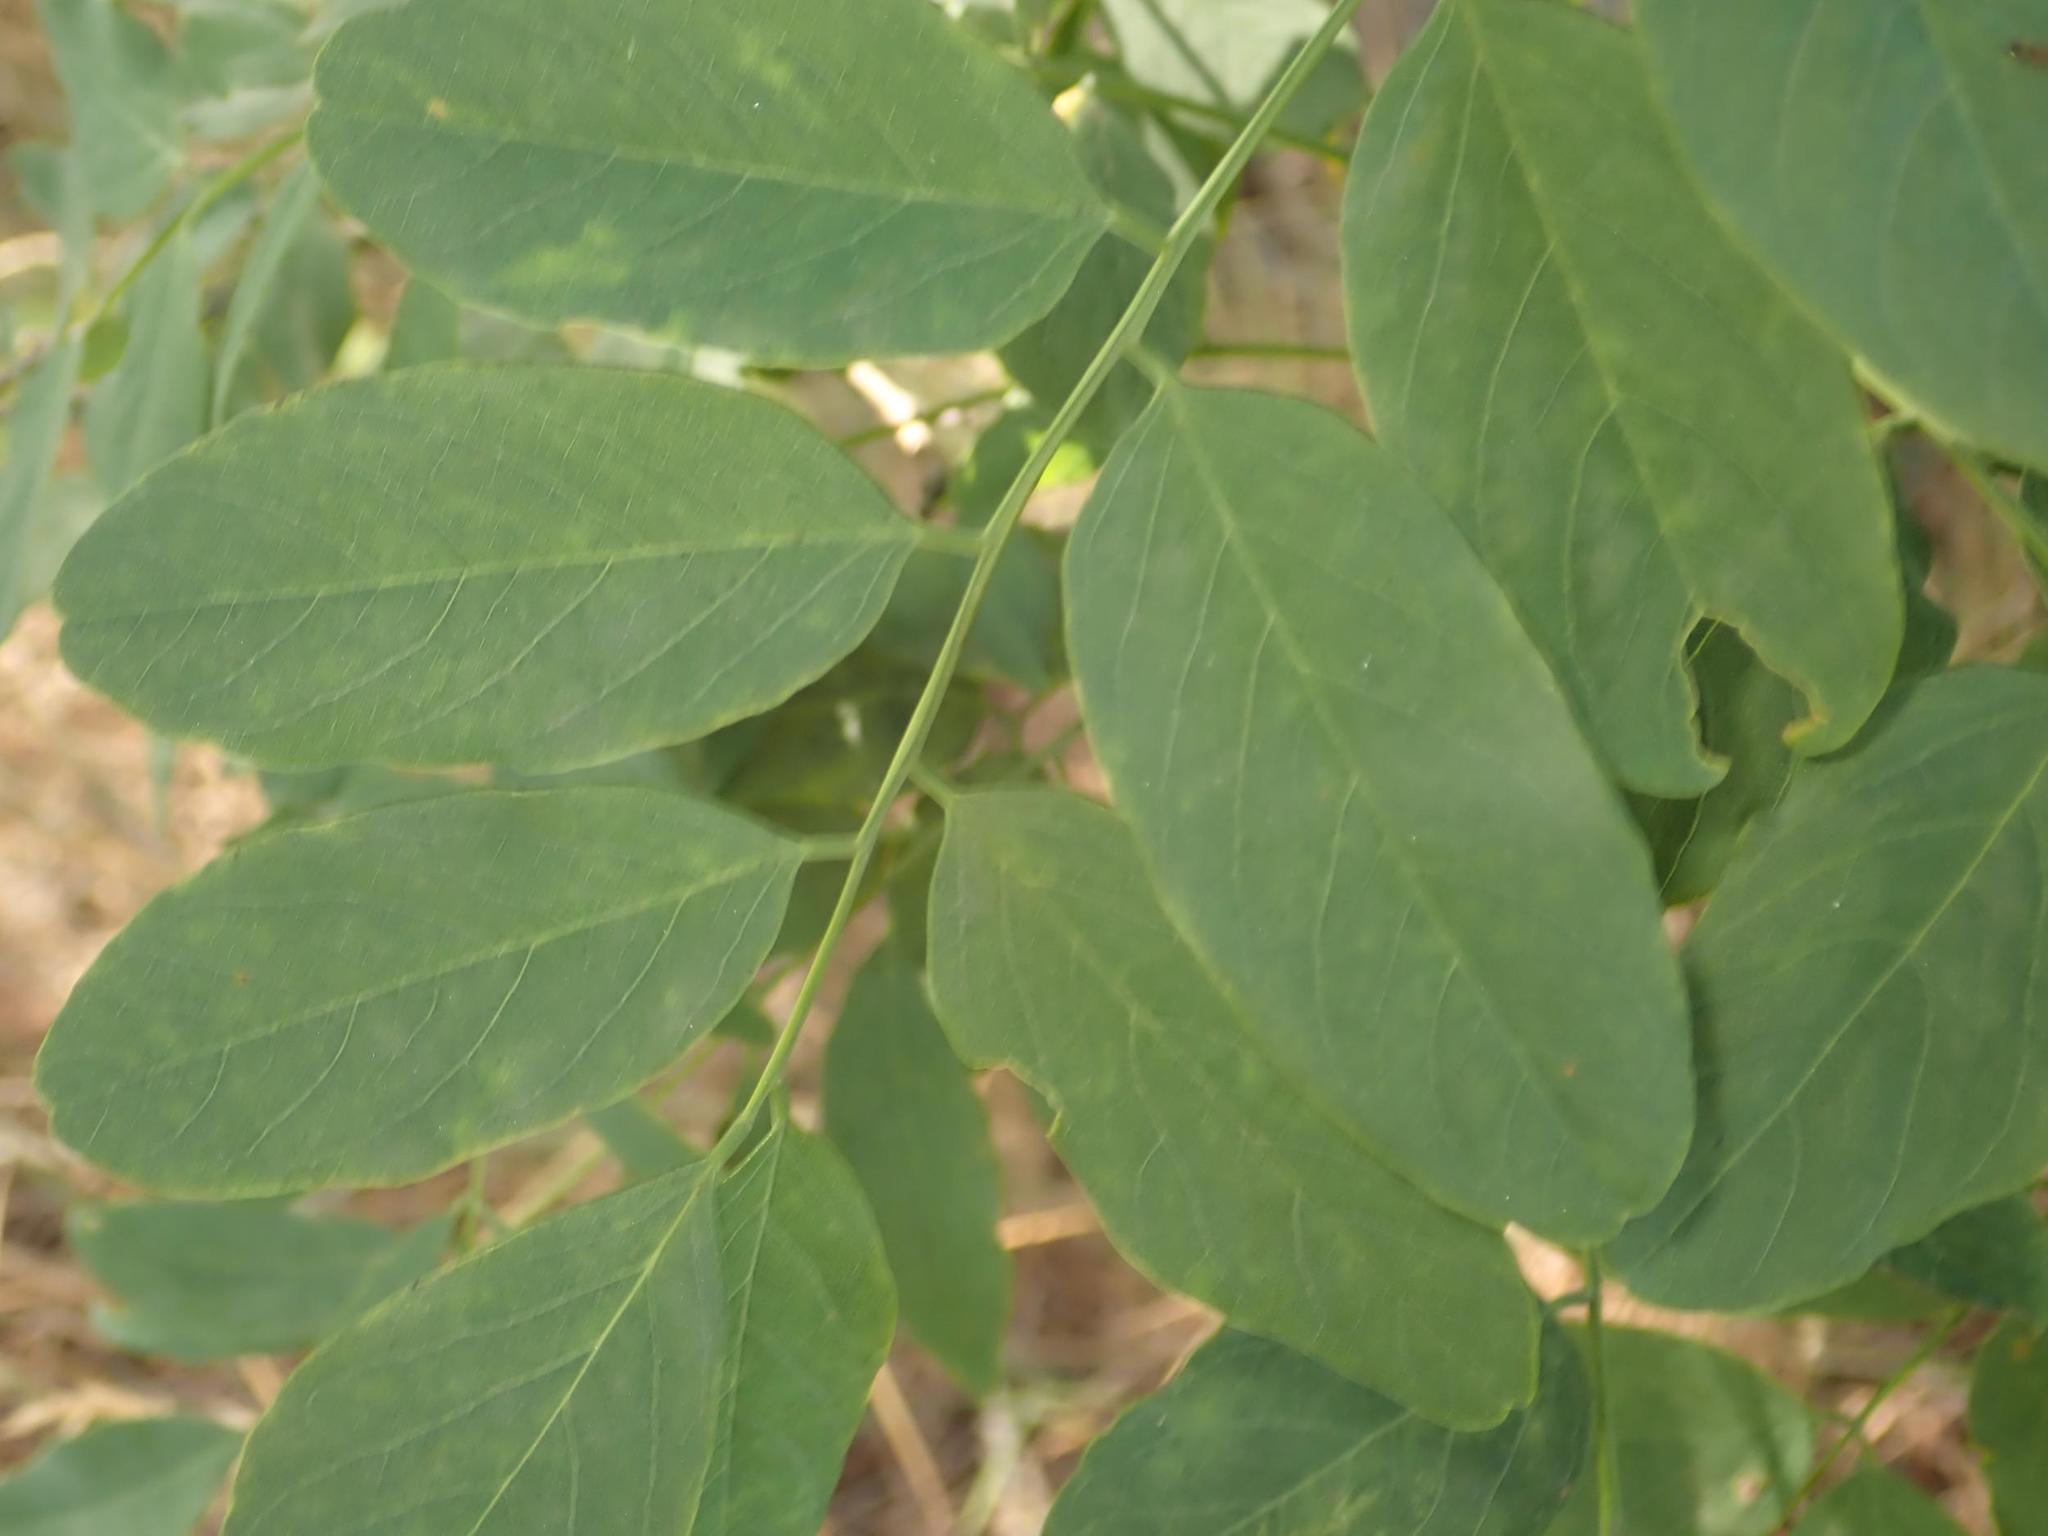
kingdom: Plantae
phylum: Tracheophyta
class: Magnoliopsida
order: Fabales
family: Fabaceae
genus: Robinia
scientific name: Robinia pseudoacacia
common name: Black locust
